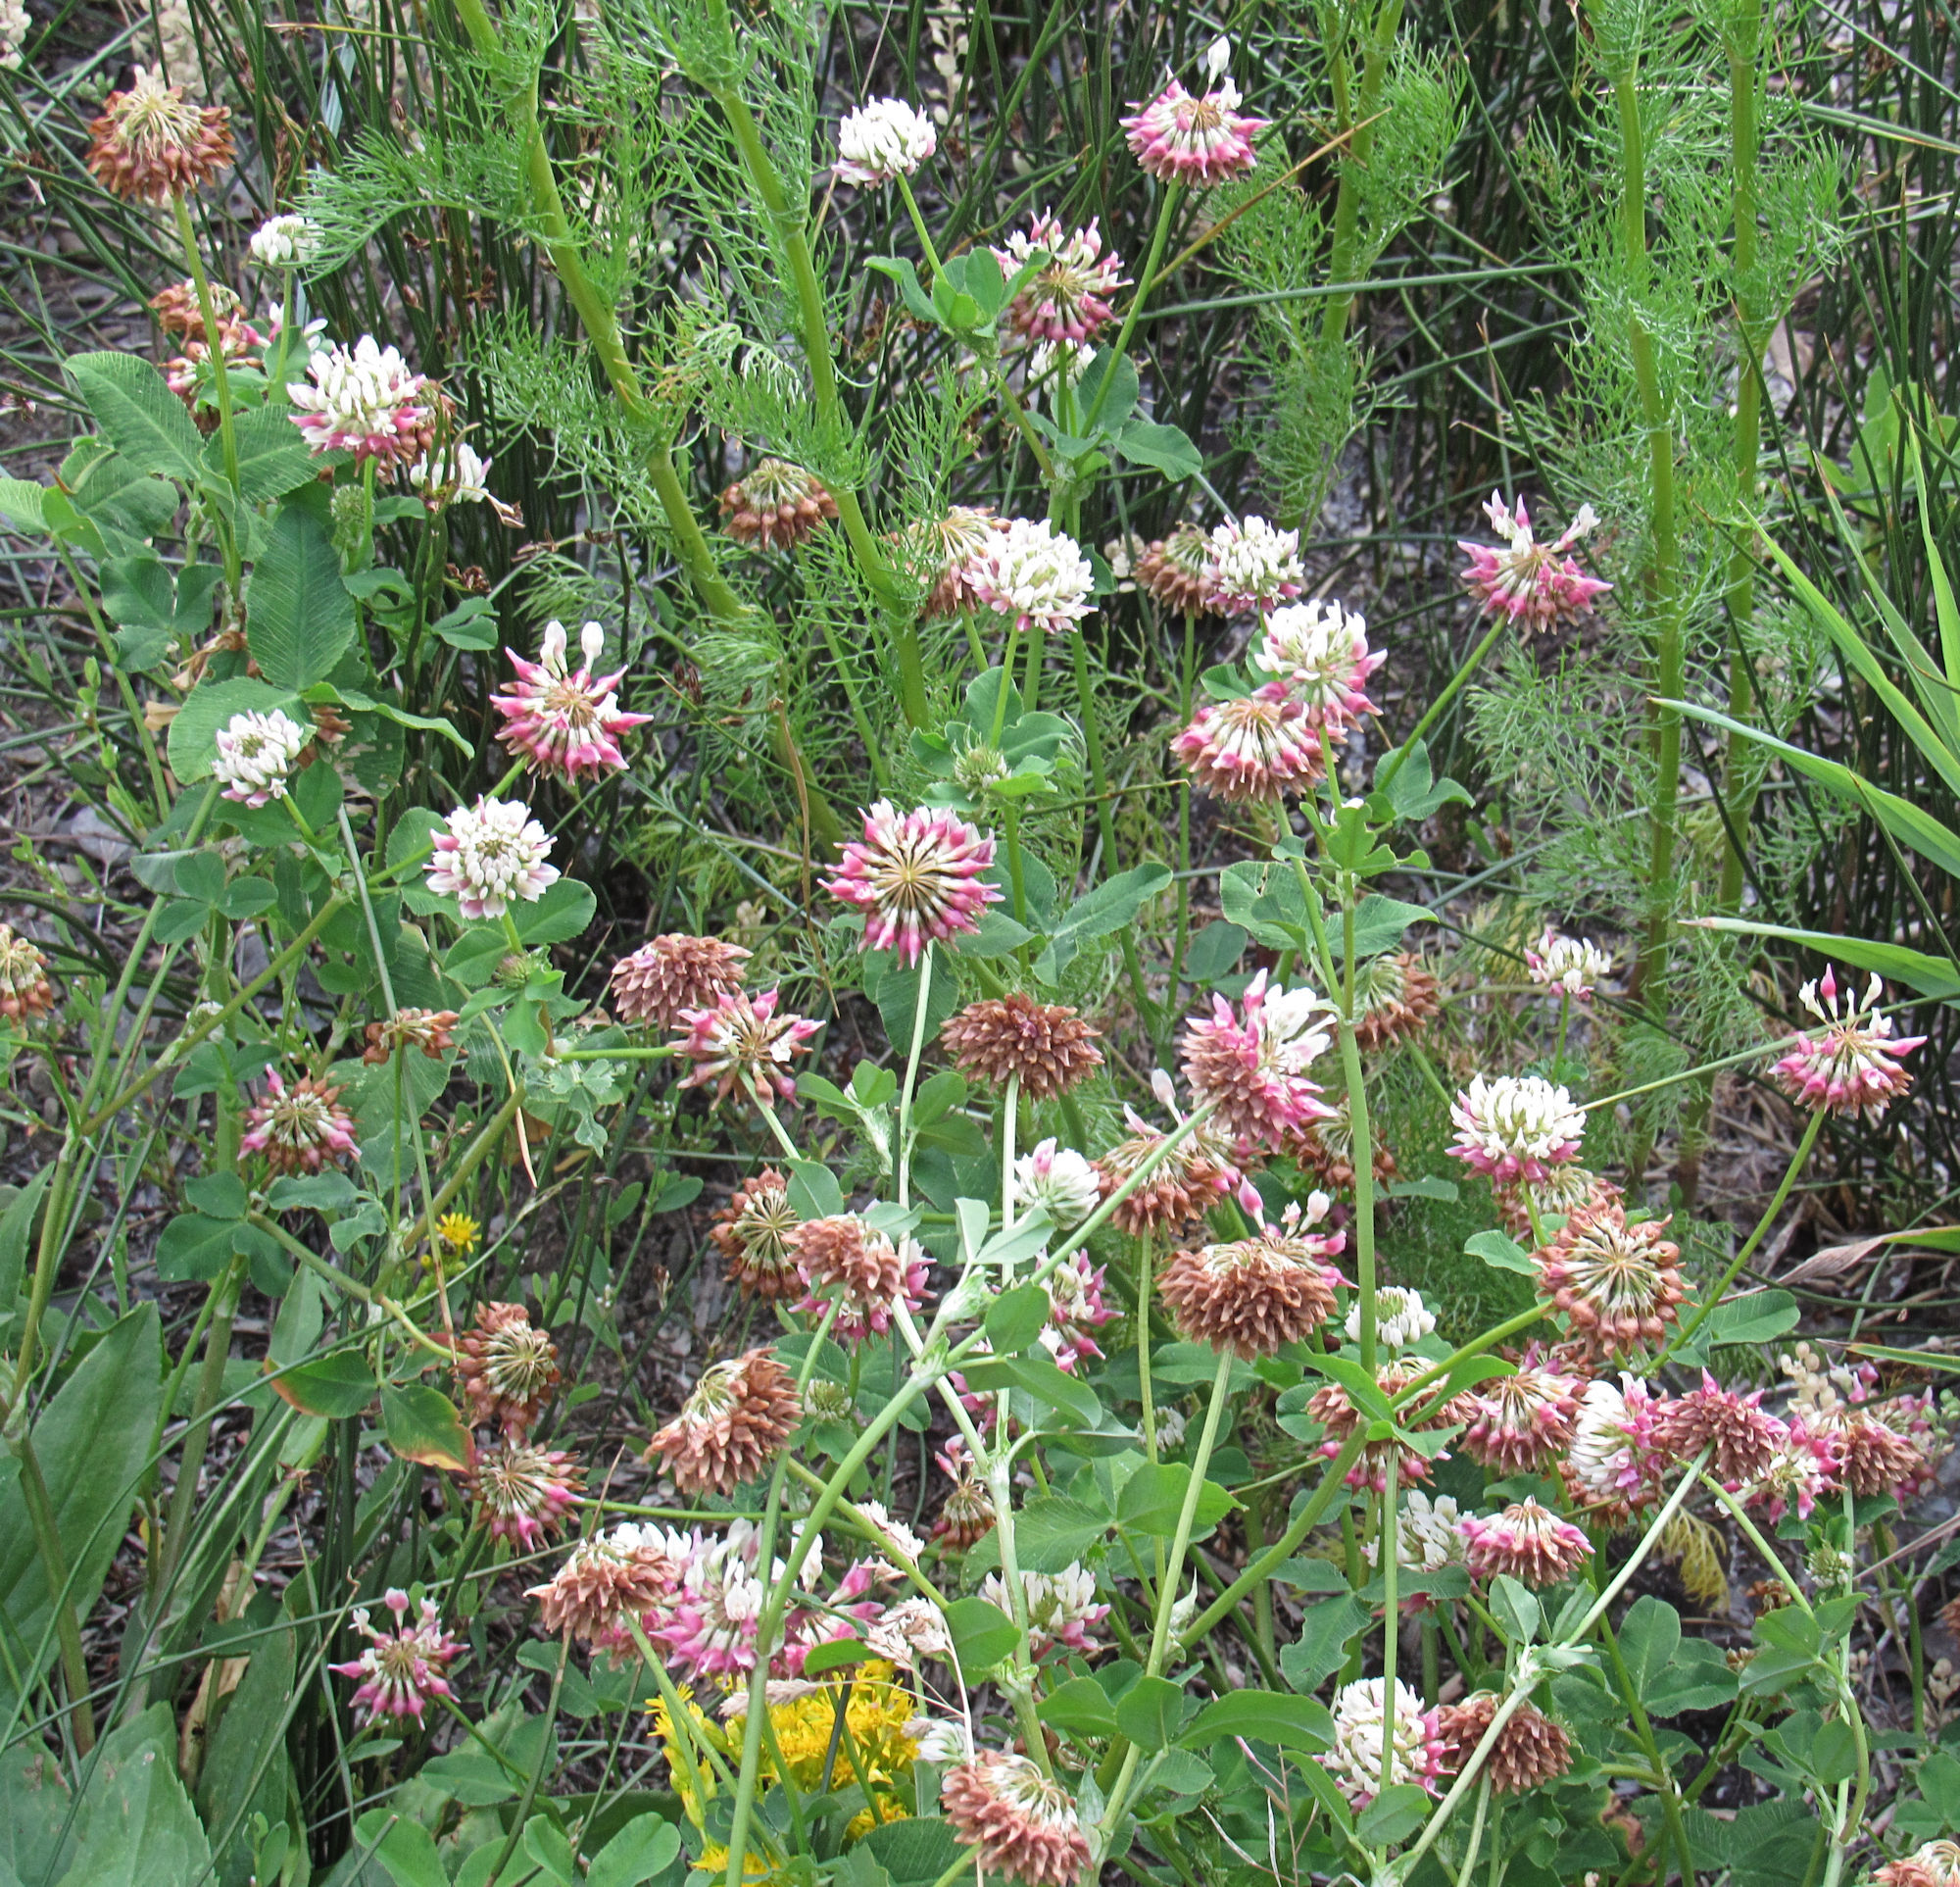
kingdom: Plantae
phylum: Tracheophyta
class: Magnoliopsida
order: Fabales
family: Fabaceae
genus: Trifolium
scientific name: Trifolium hybridum
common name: Alsike clover
